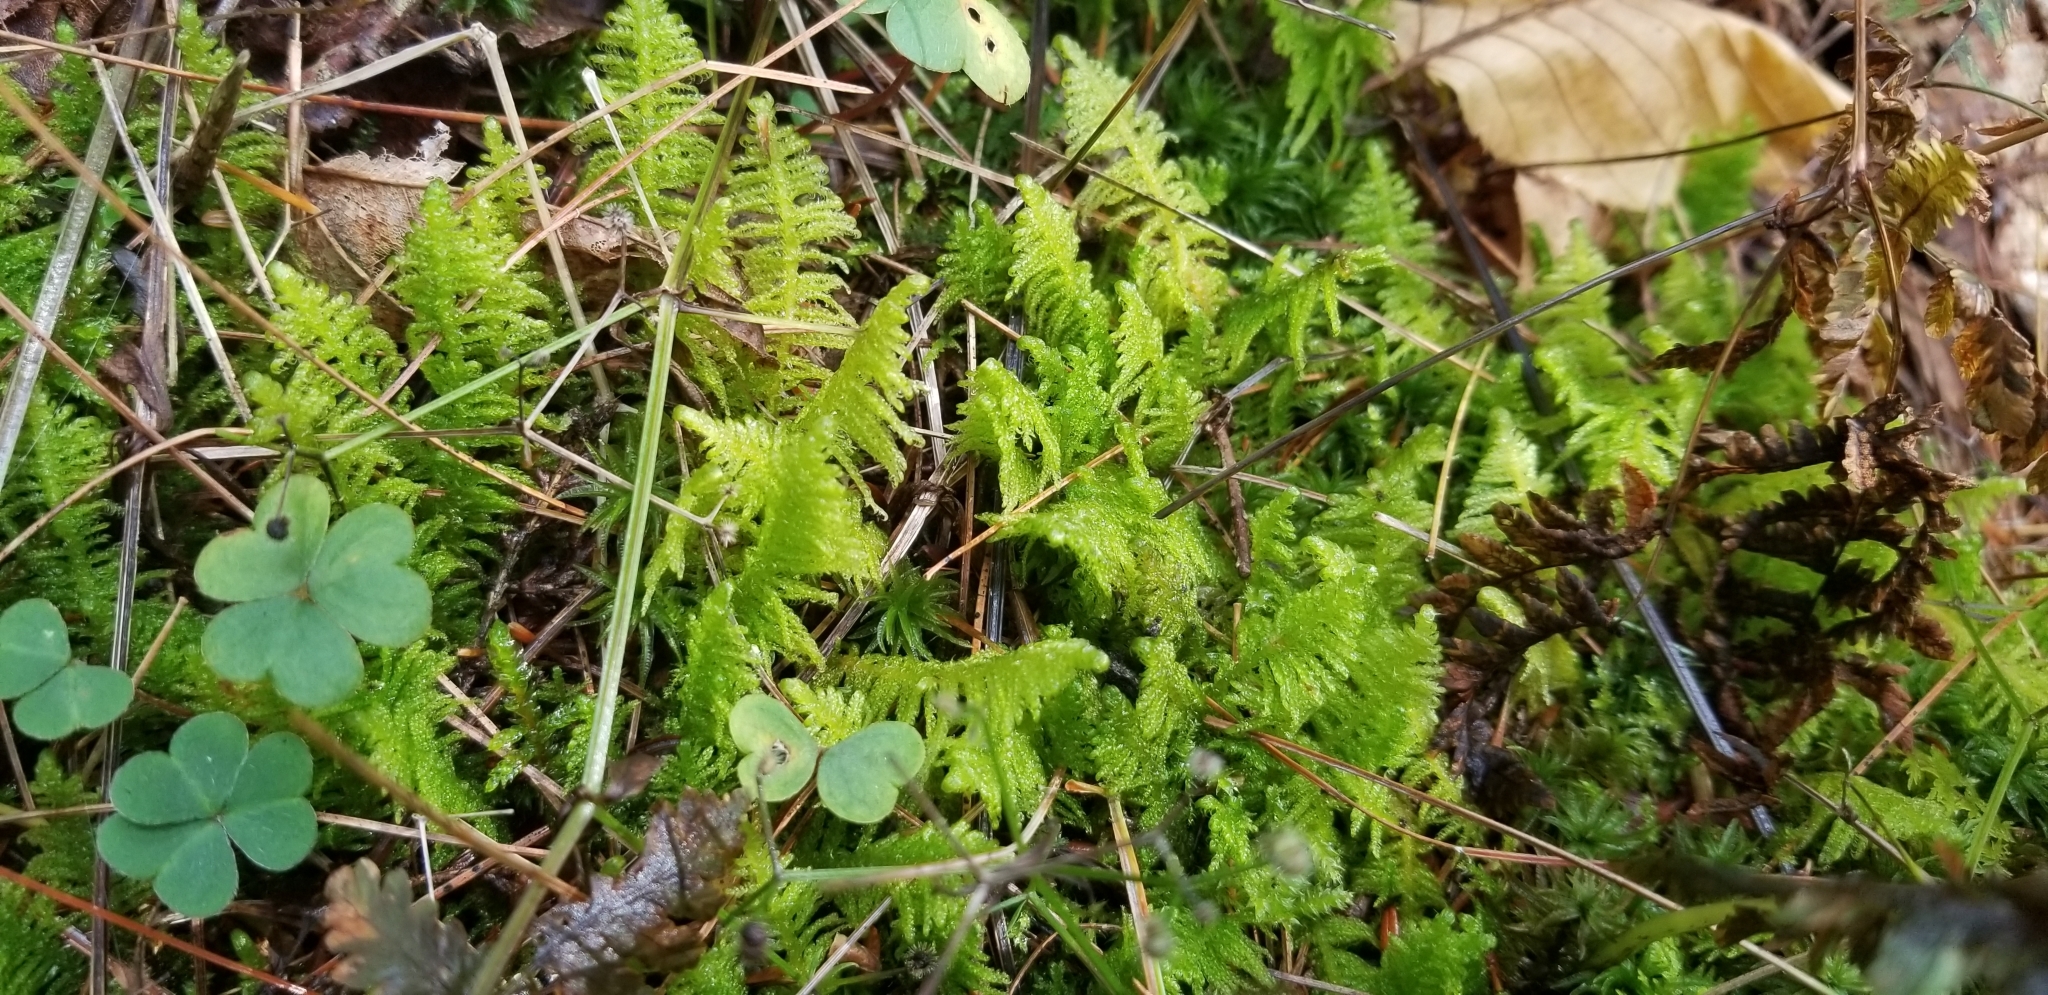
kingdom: Plantae
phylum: Bryophyta
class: Bryopsida
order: Hypnales
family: Pylaisiaceae
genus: Ptilium
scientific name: Ptilium crista-castrensis
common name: Knight's plume moss
